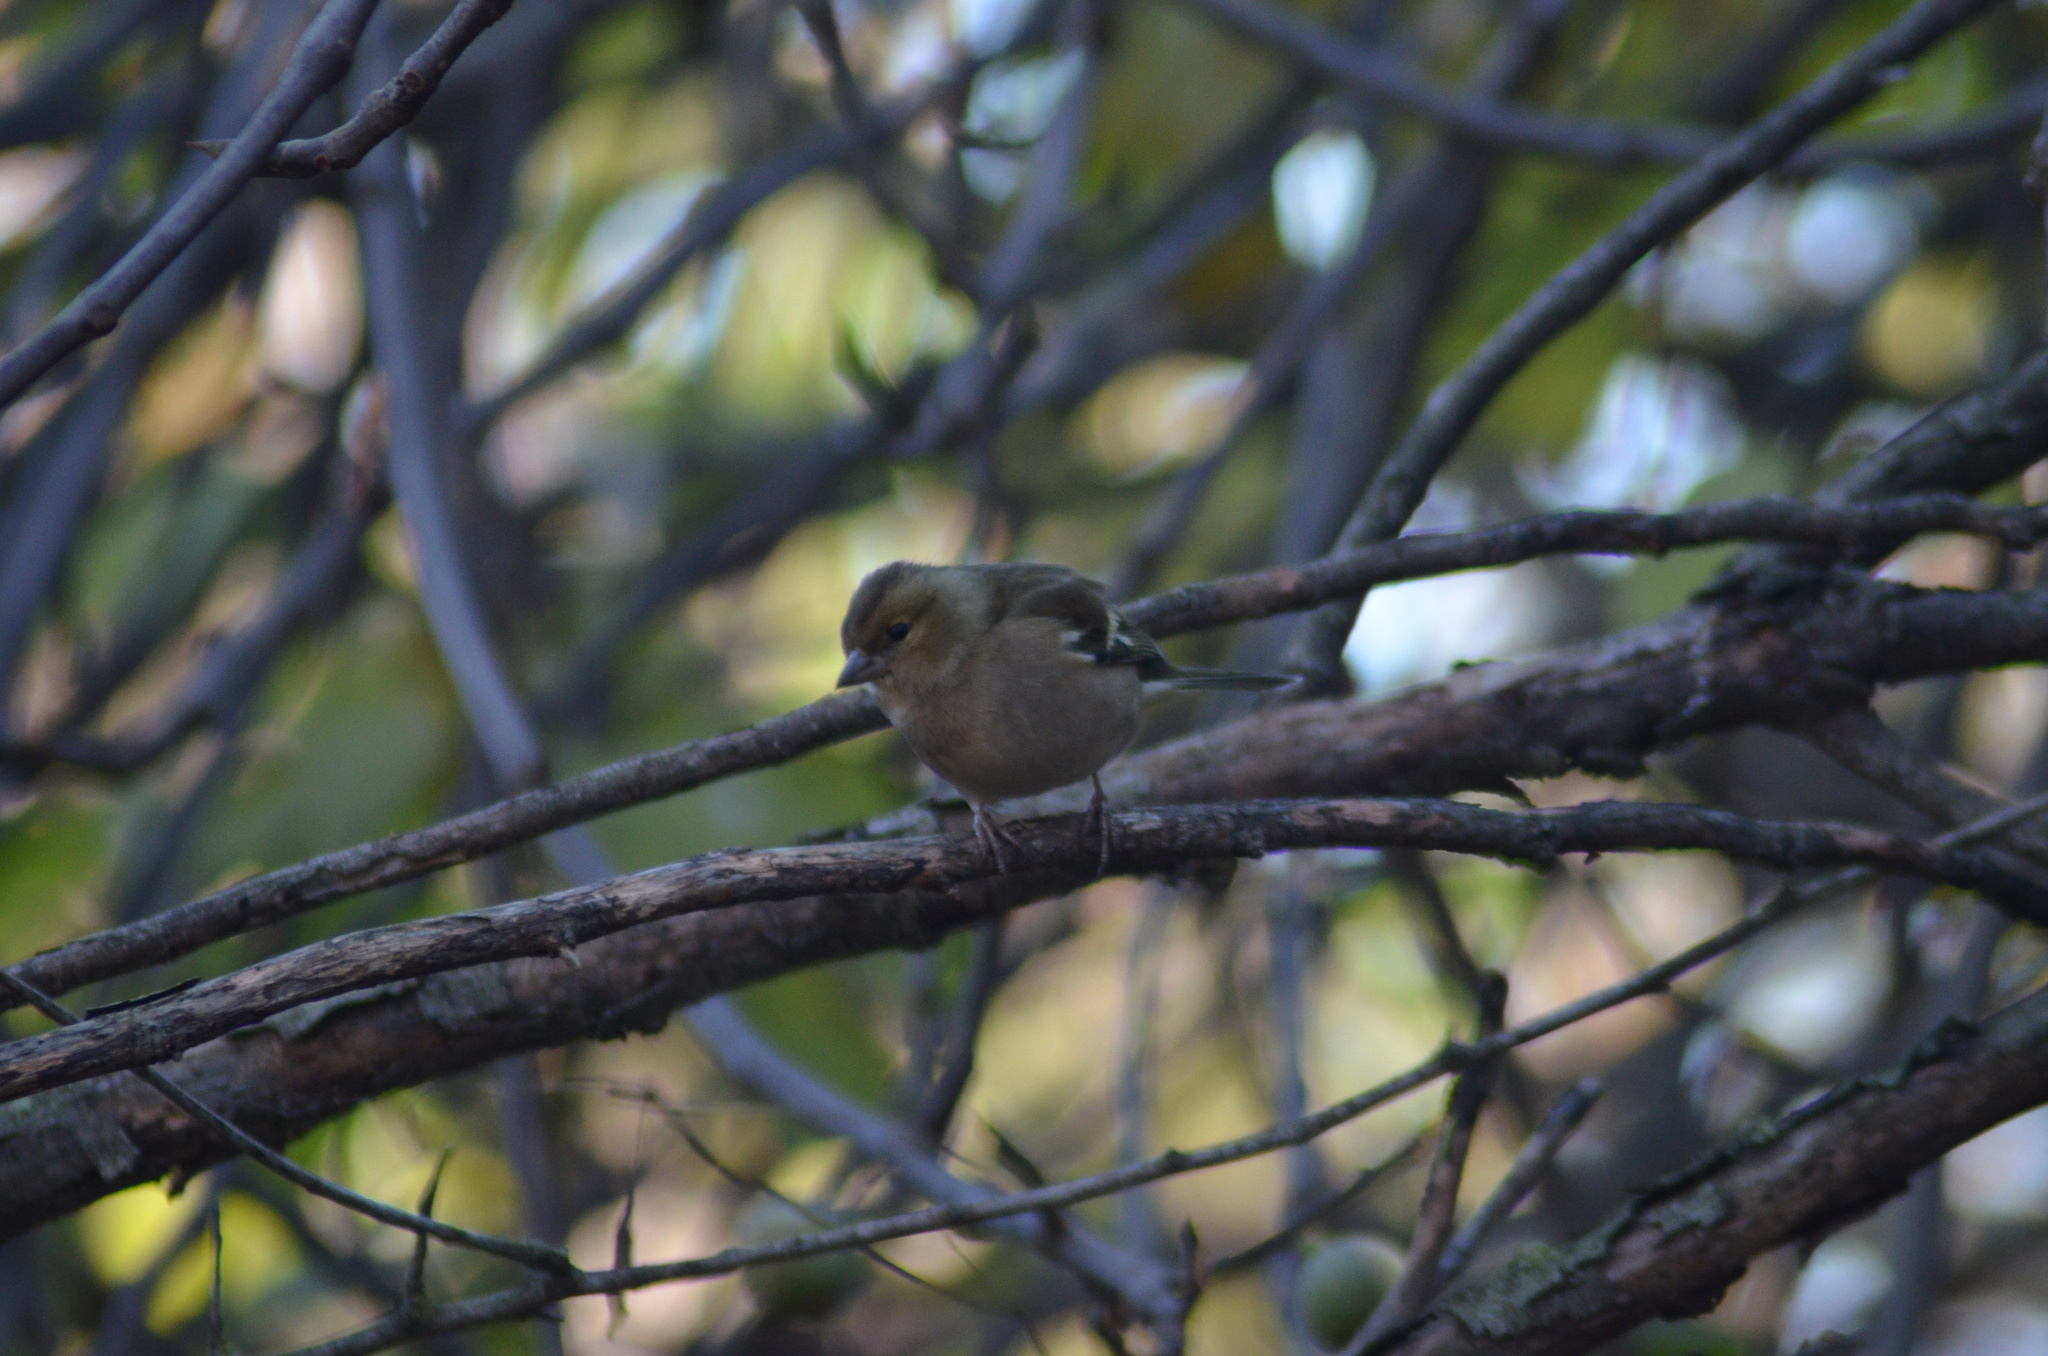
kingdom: Animalia
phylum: Chordata
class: Aves
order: Passeriformes
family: Fringillidae
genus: Fringilla
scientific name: Fringilla coelebs
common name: Common chaffinch
